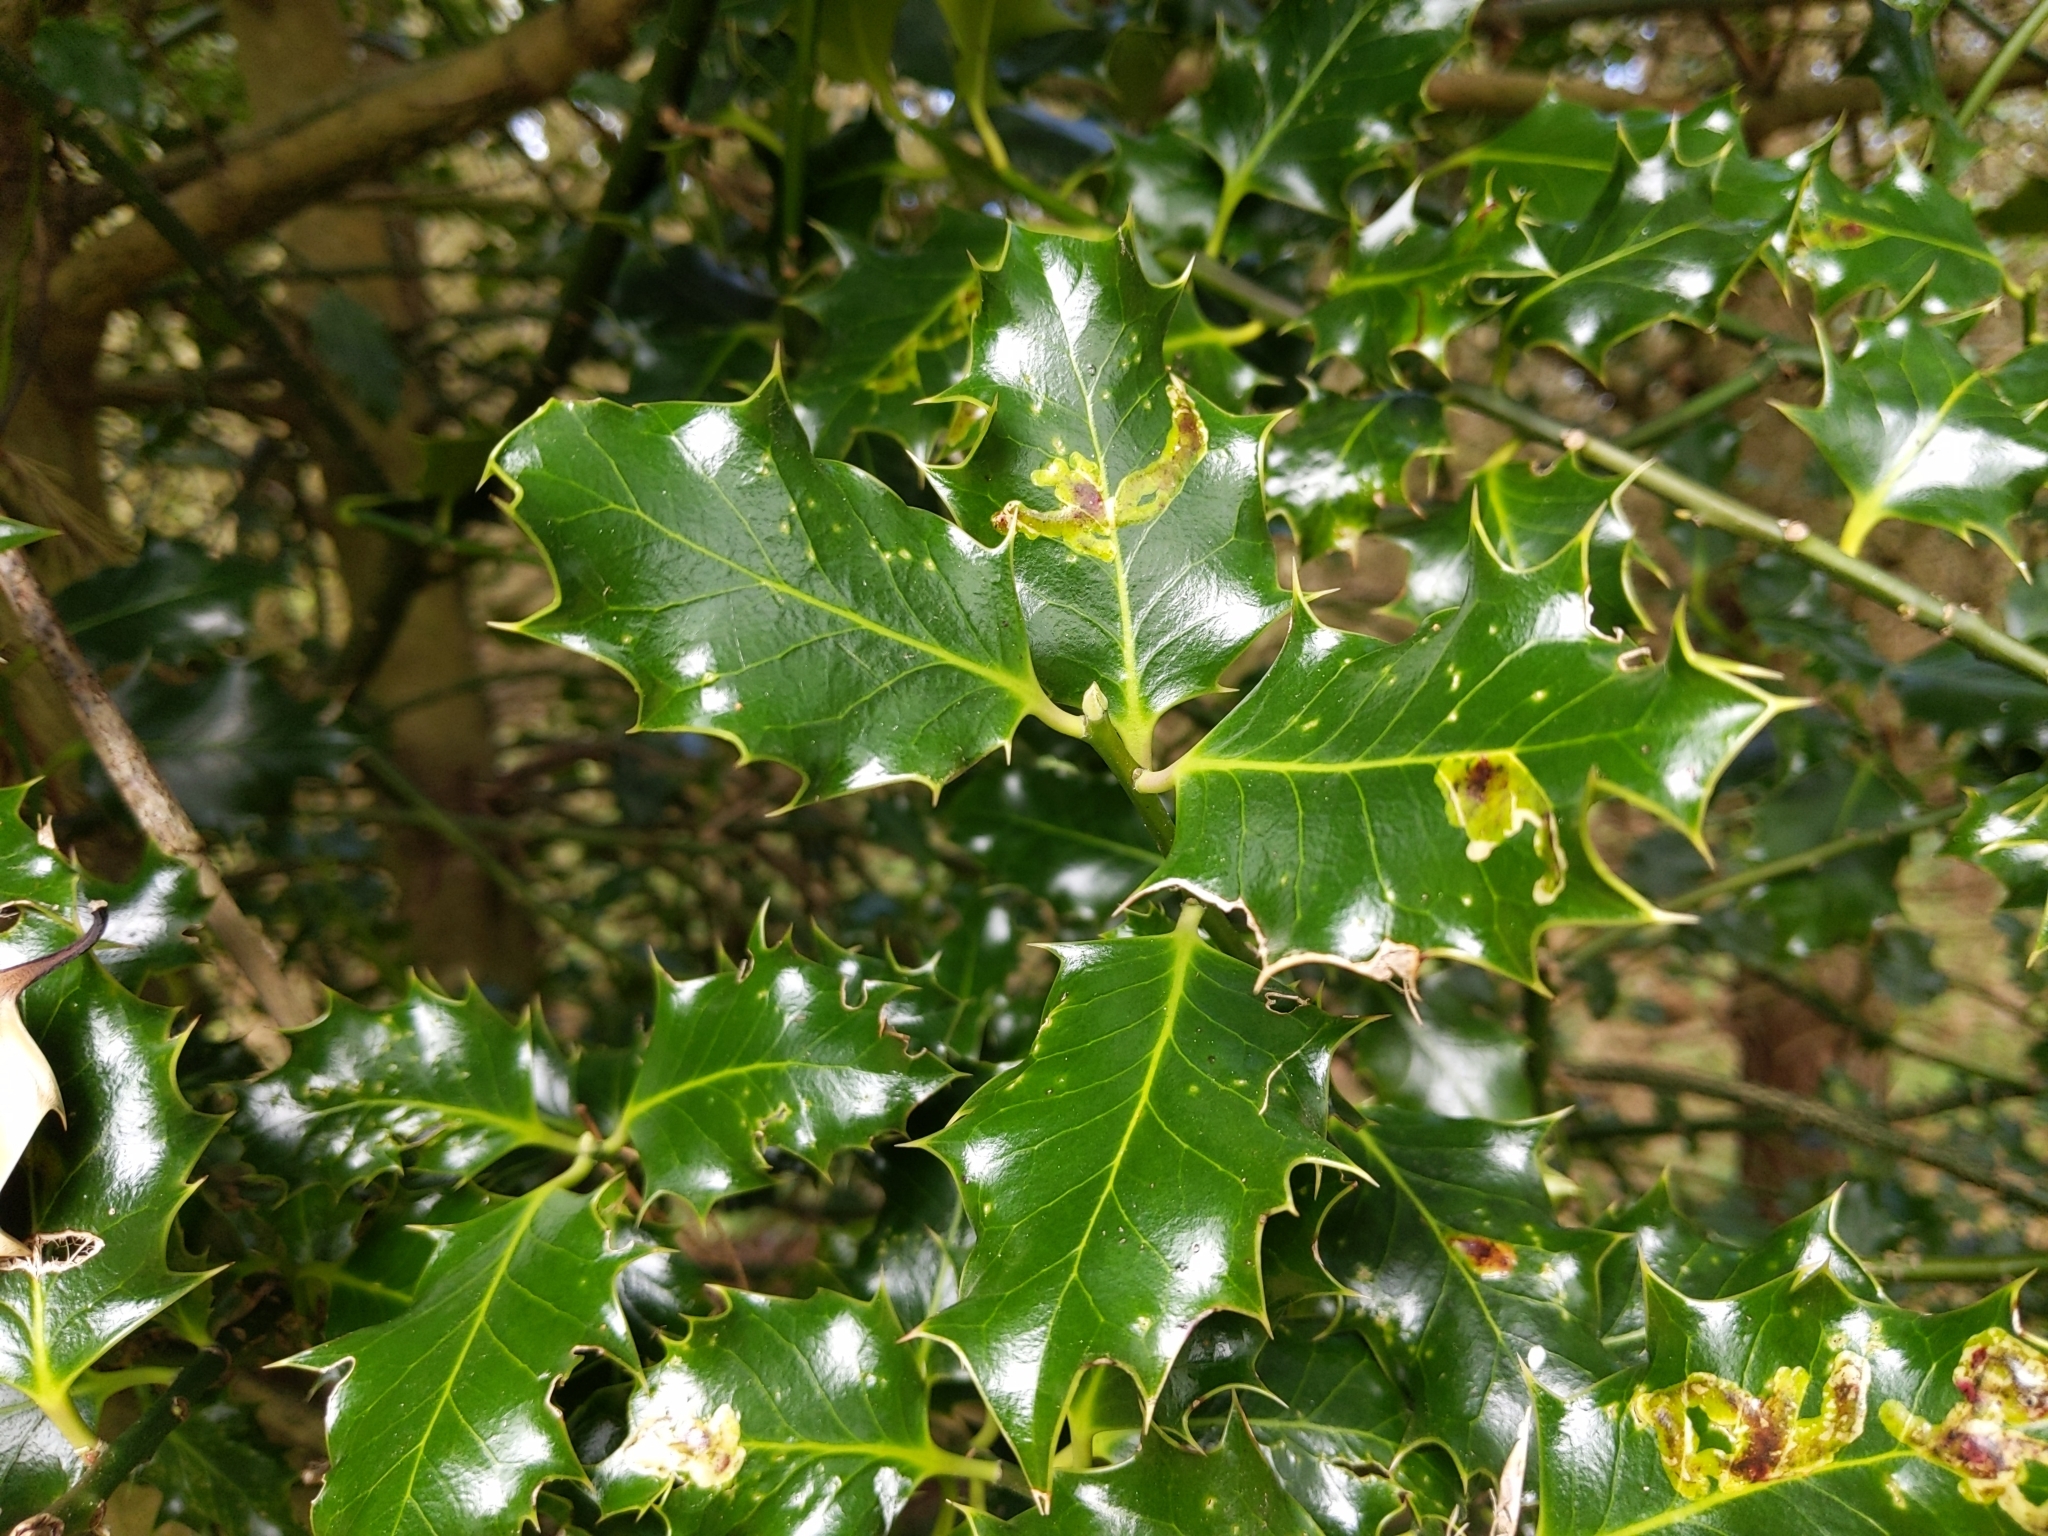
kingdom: Plantae
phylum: Tracheophyta
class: Magnoliopsida
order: Aquifoliales
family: Aquifoliaceae
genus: Ilex
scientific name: Ilex aquifolium
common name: English holly
